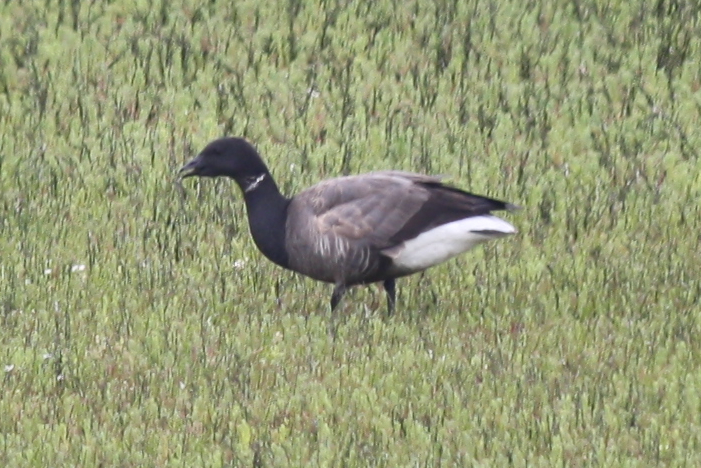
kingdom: Animalia
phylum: Chordata
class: Aves
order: Anseriformes
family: Anatidae
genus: Branta
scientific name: Branta bernicla
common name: Brant goose
